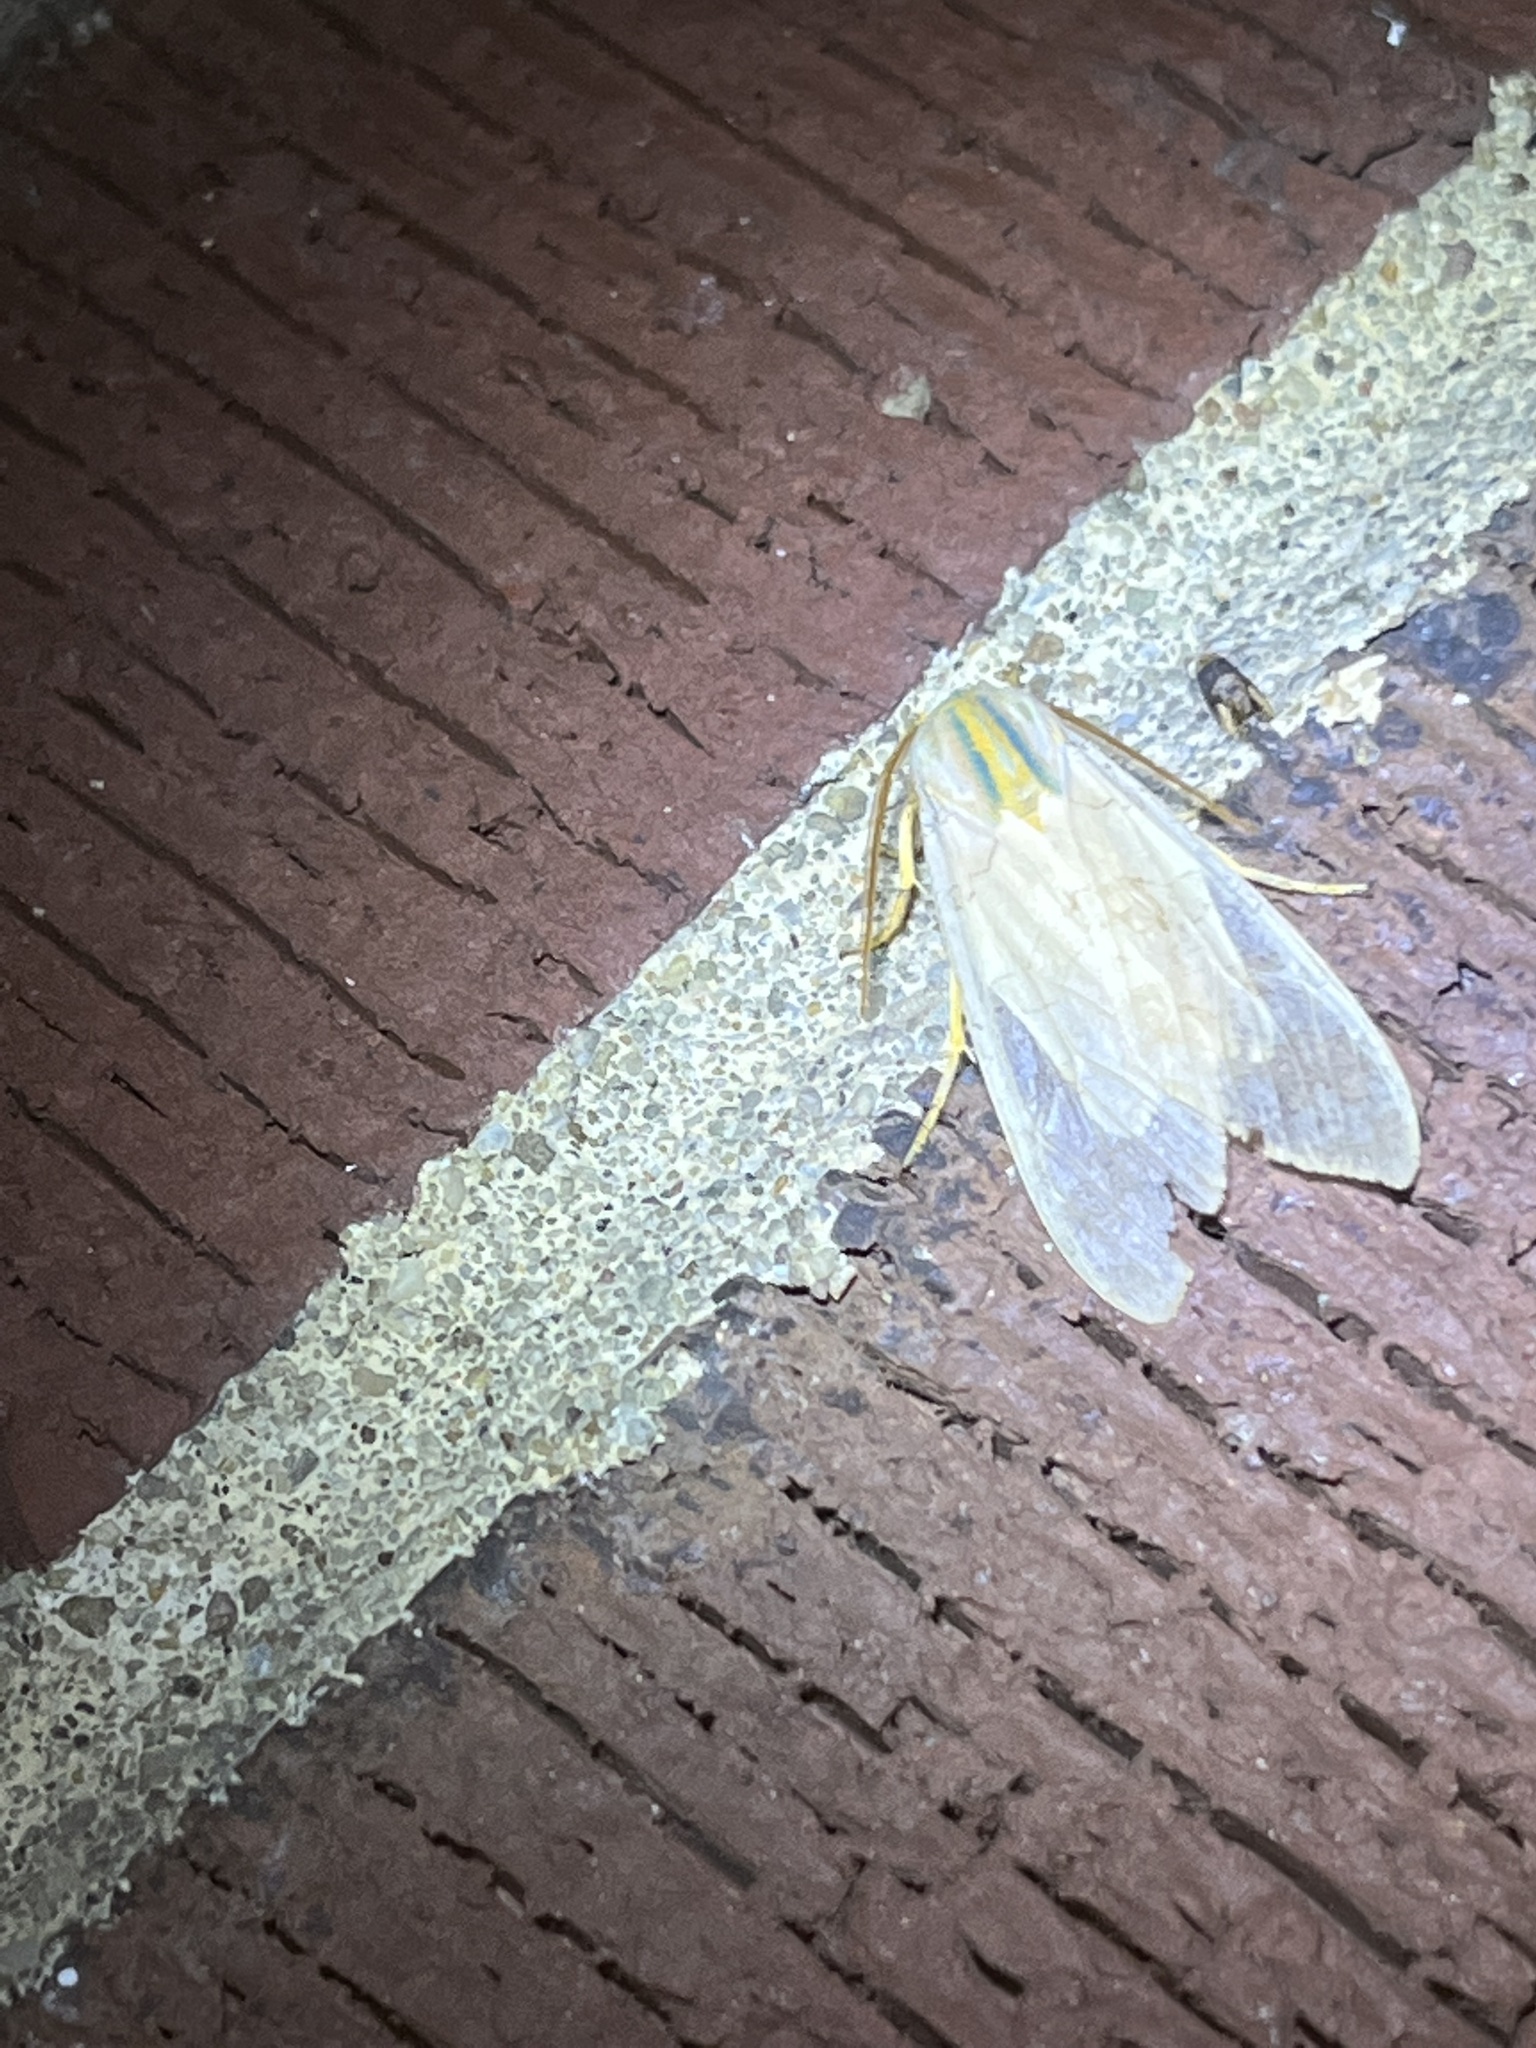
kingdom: Animalia
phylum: Arthropoda
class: Insecta
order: Lepidoptera
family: Erebidae
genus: Halysidota
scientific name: Halysidota
